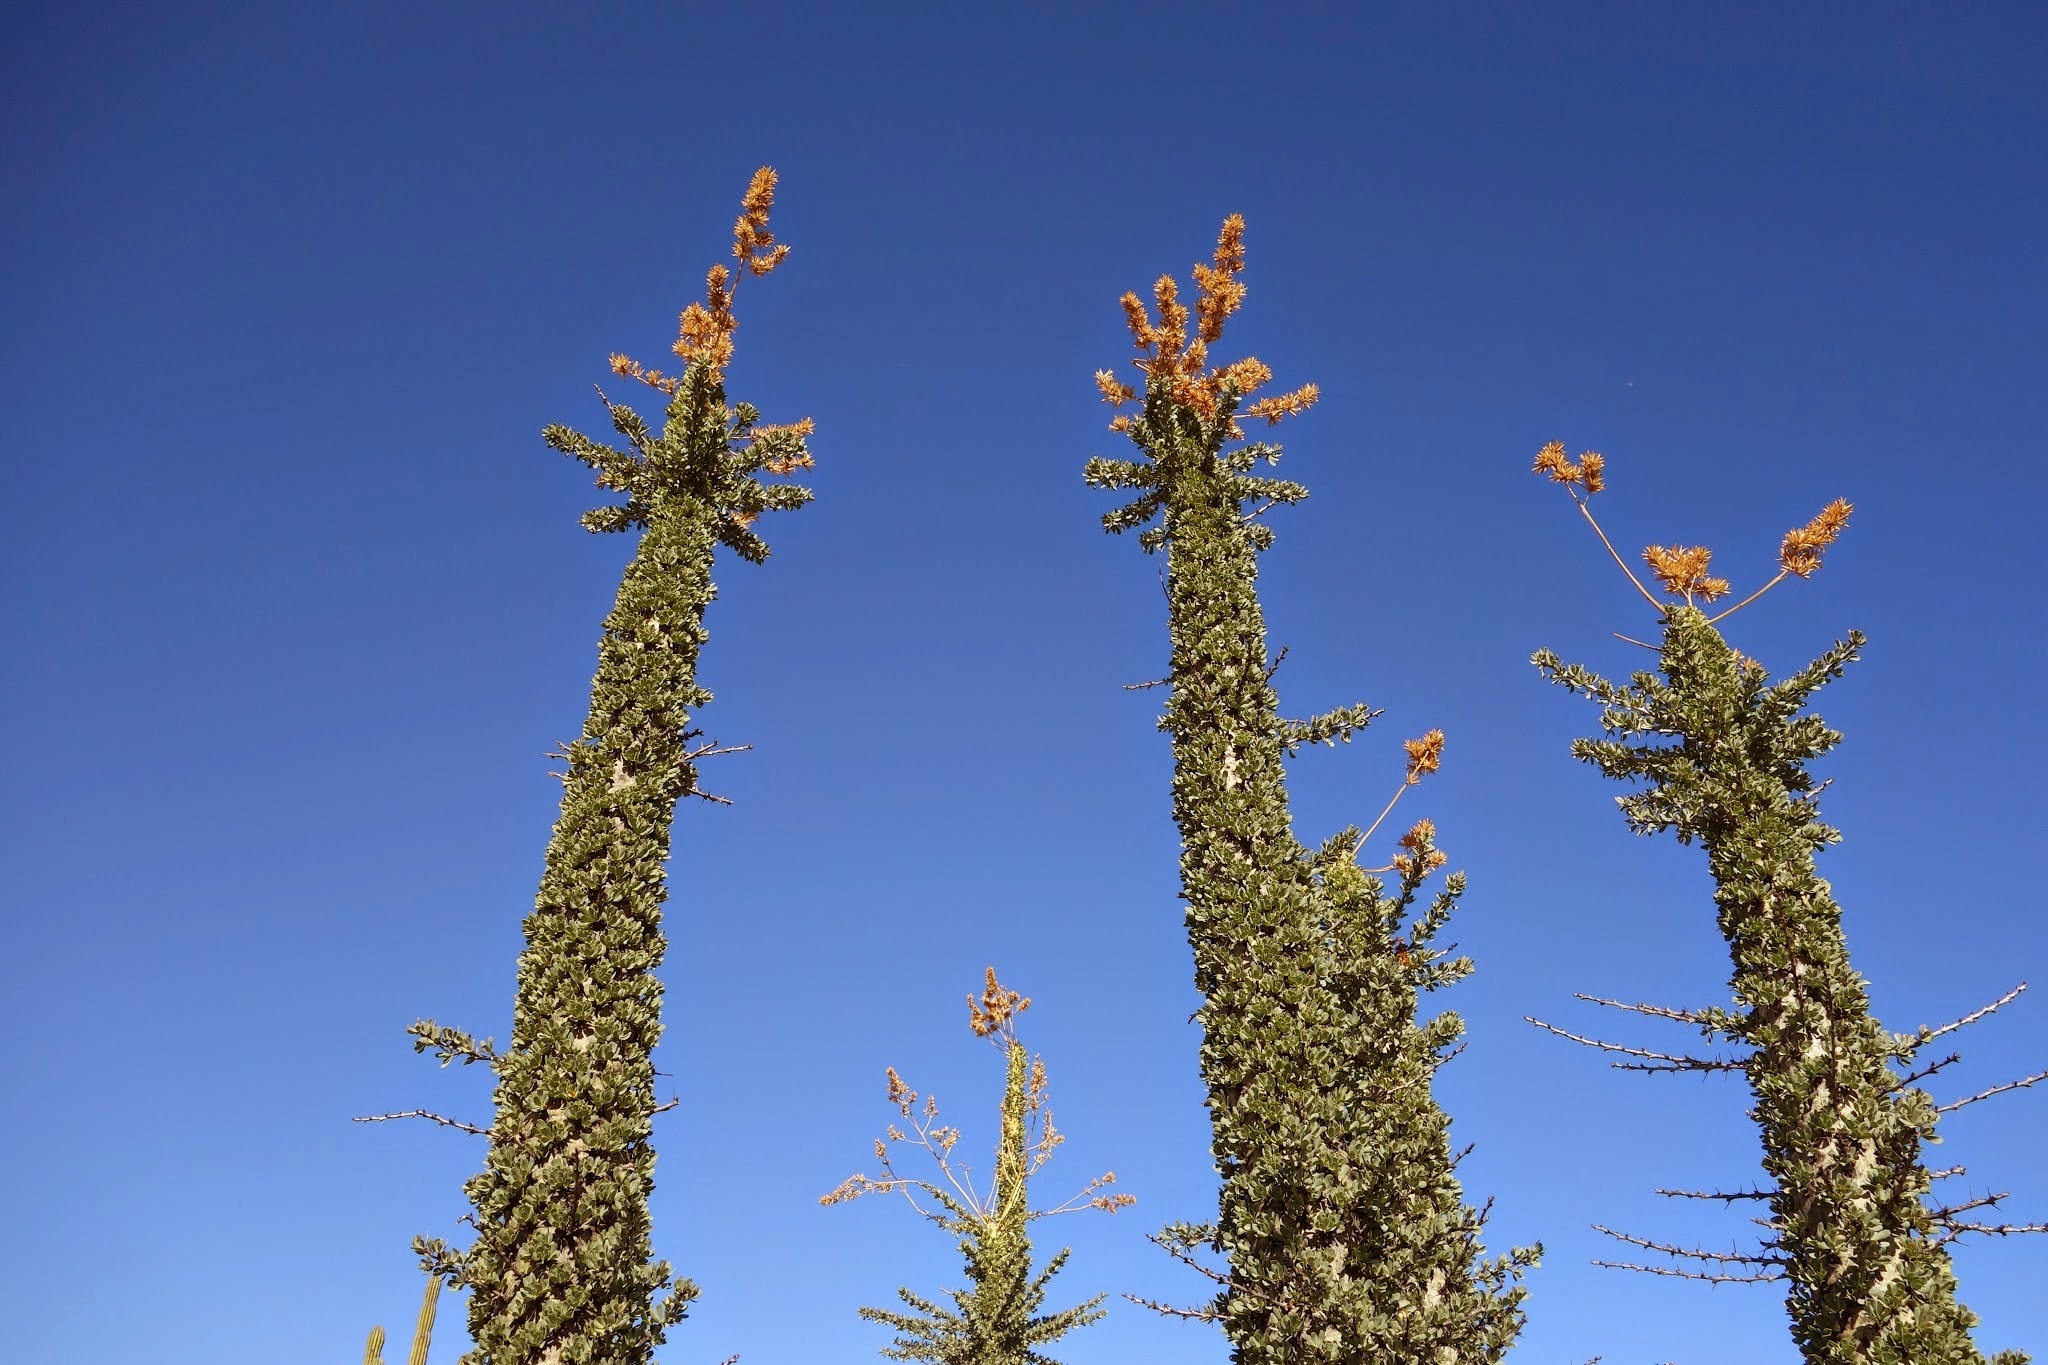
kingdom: Plantae
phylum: Tracheophyta
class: Magnoliopsida
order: Ericales
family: Fouquieriaceae
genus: Fouquieria
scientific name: Fouquieria columnaris
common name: Boojumtree
